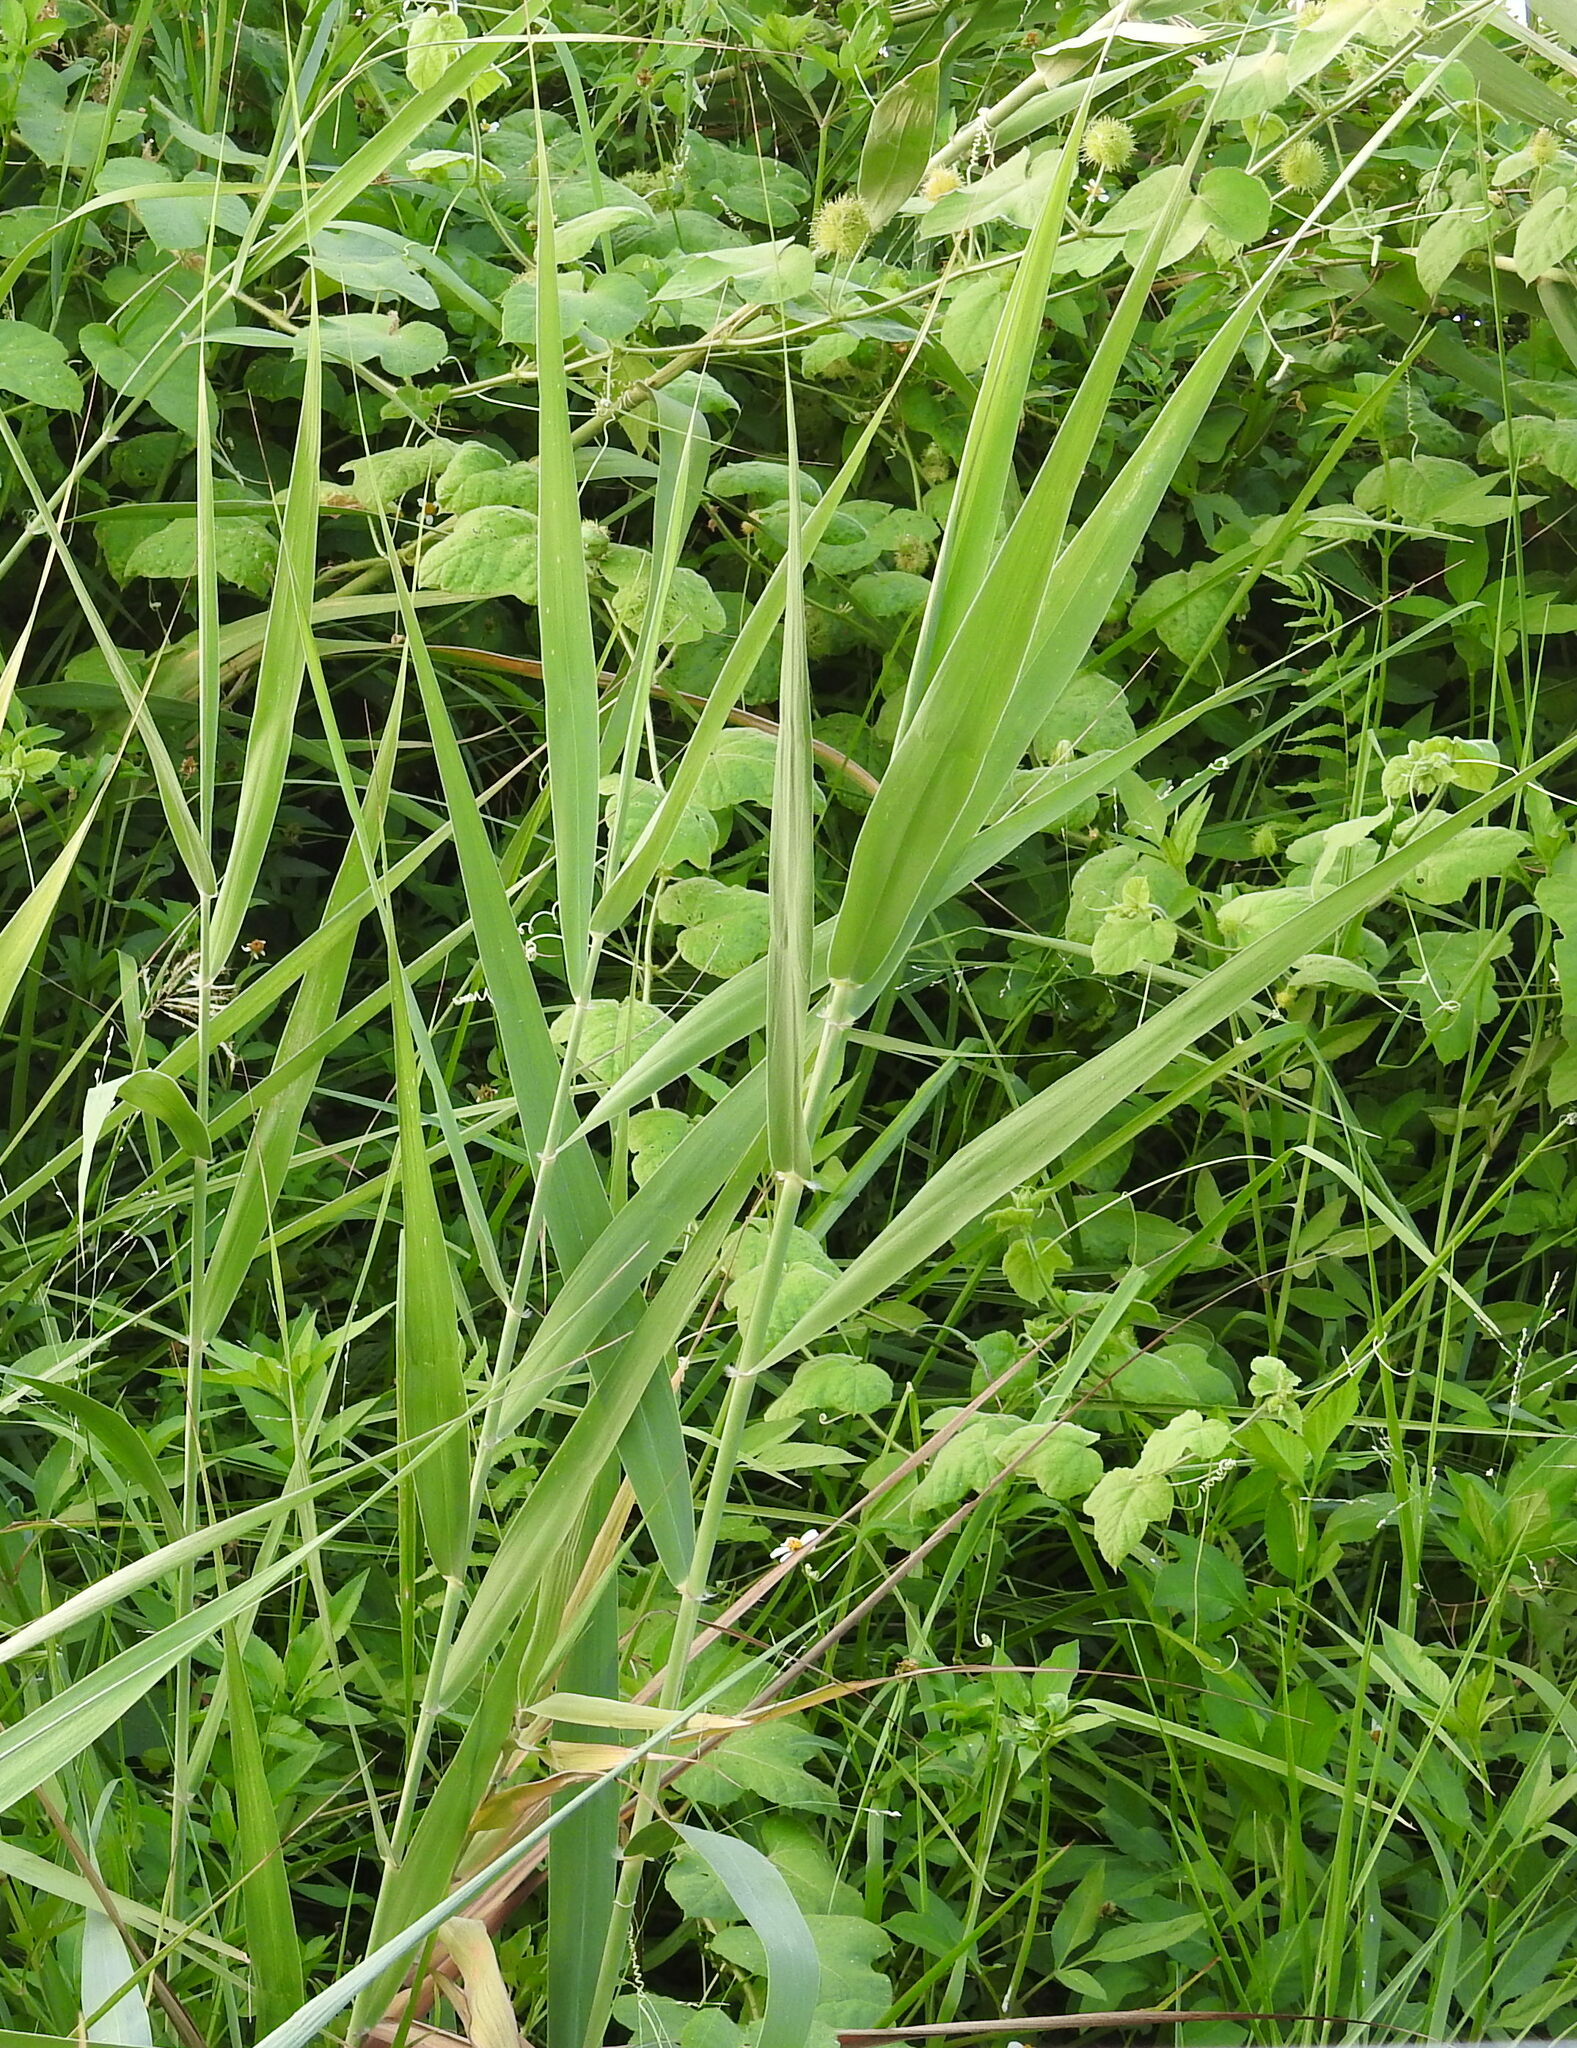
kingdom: Plantae
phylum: Tracheophyta
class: Liliopsida
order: Poales
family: Poaceae
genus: Phragmites
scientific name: Phragmites karka
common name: Tropical reed
